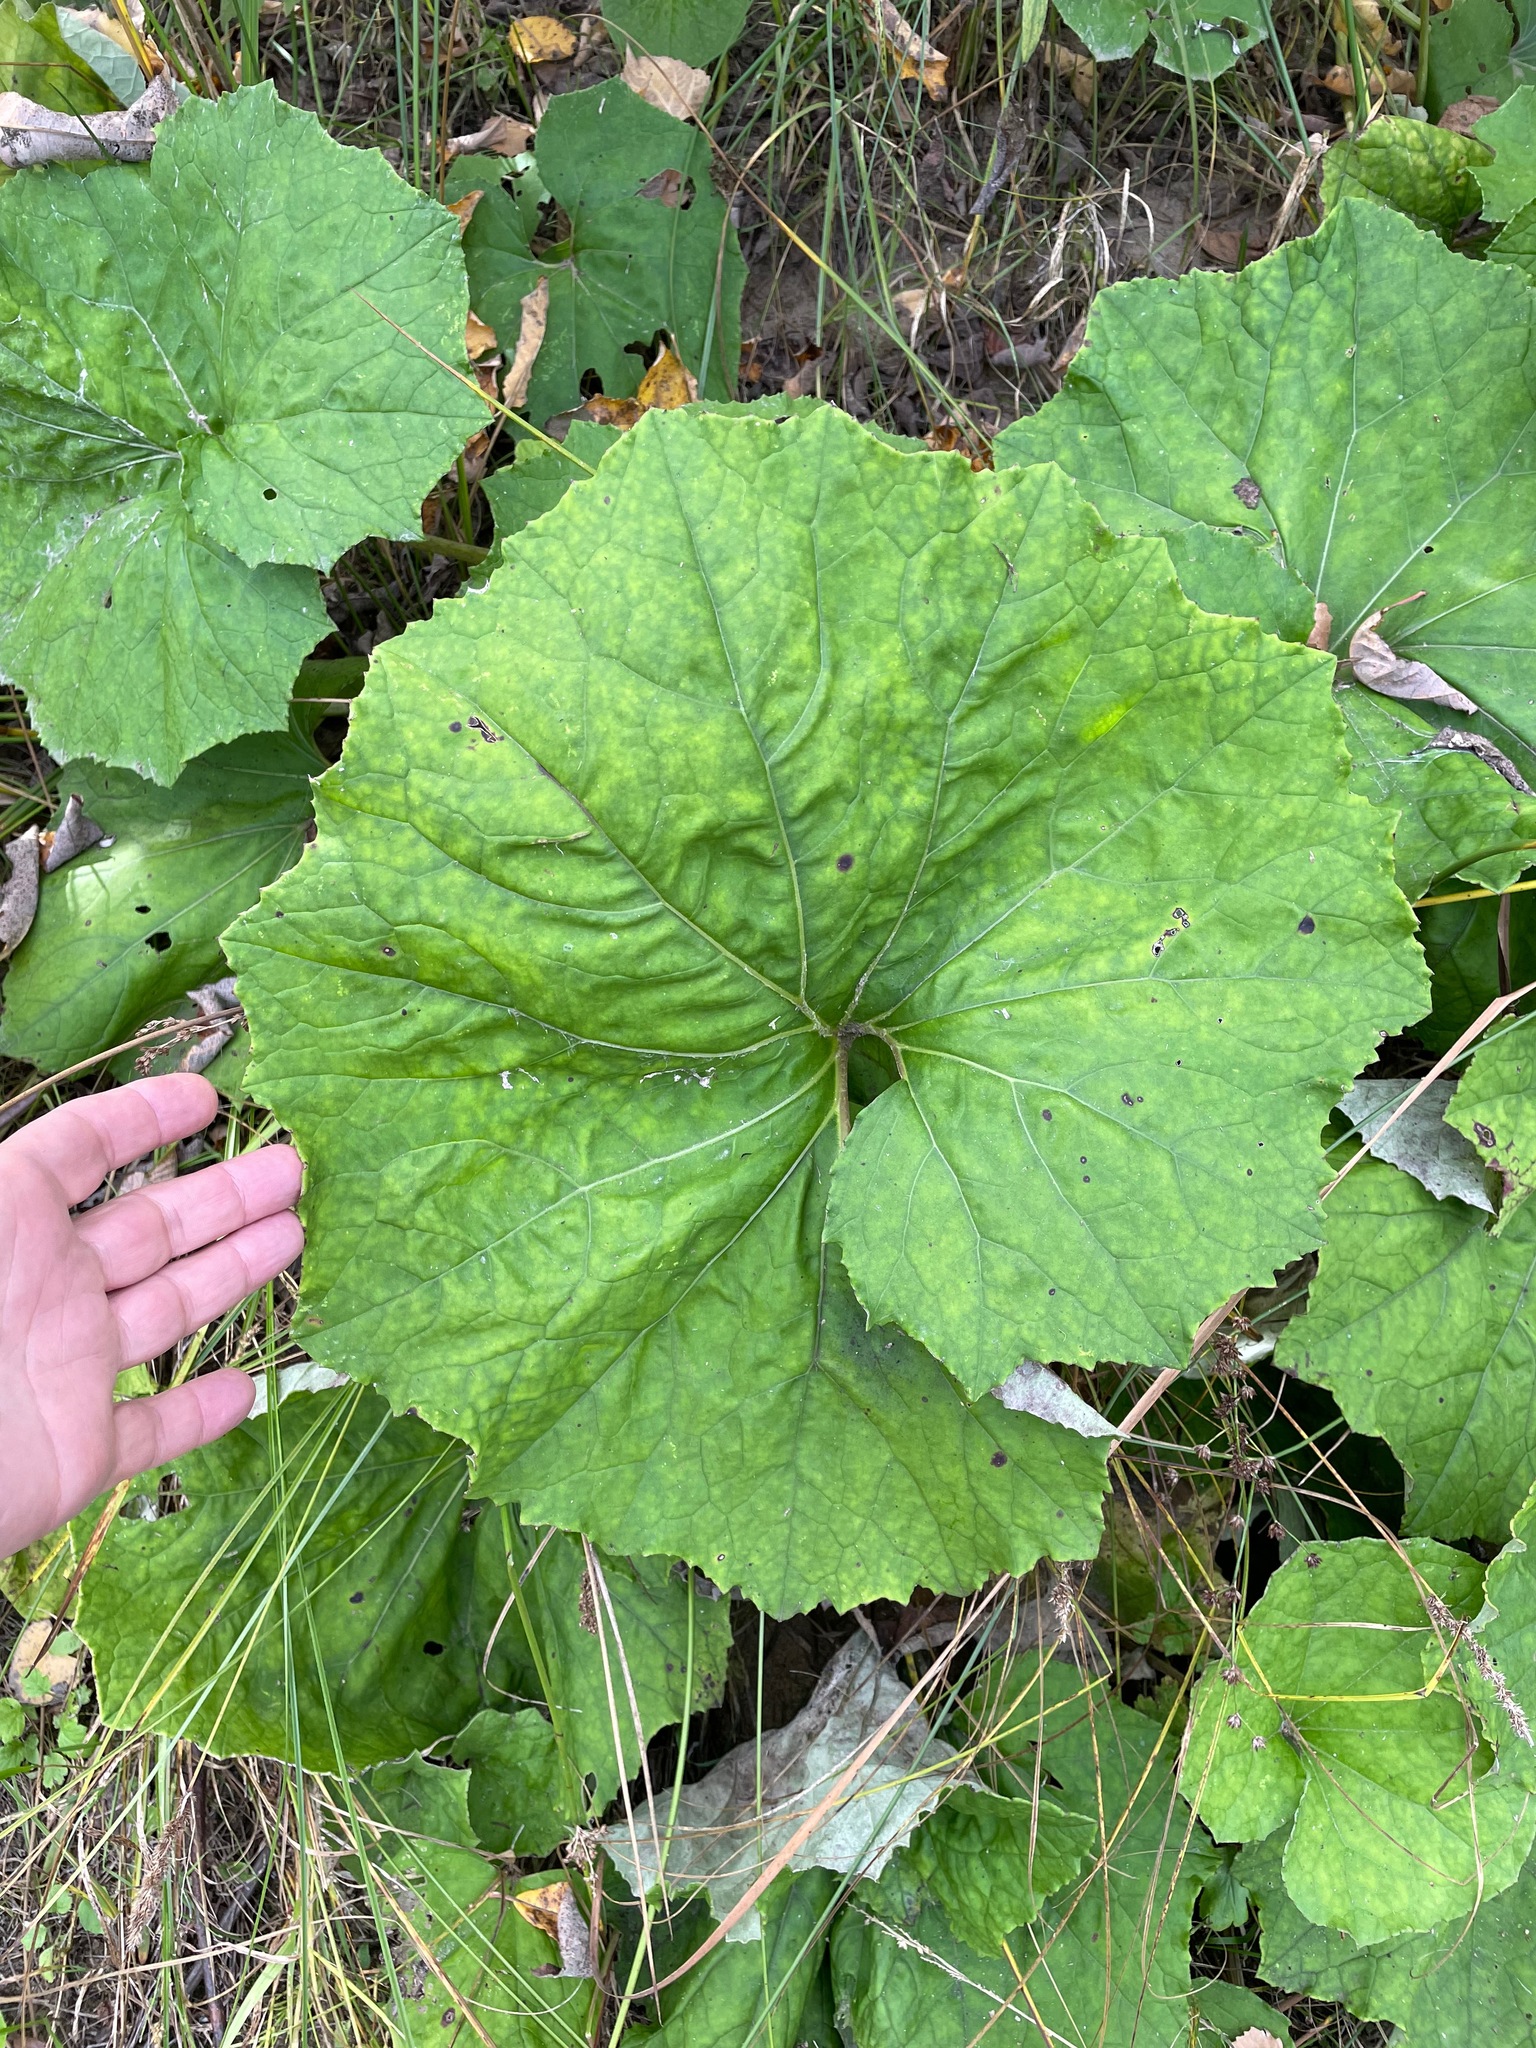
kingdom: Plantae
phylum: Tracheophyta
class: Magnoliopsida
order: Asterales
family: Asteraceae
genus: Tussilago
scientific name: Tussilago farfara
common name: Coltsfoot
